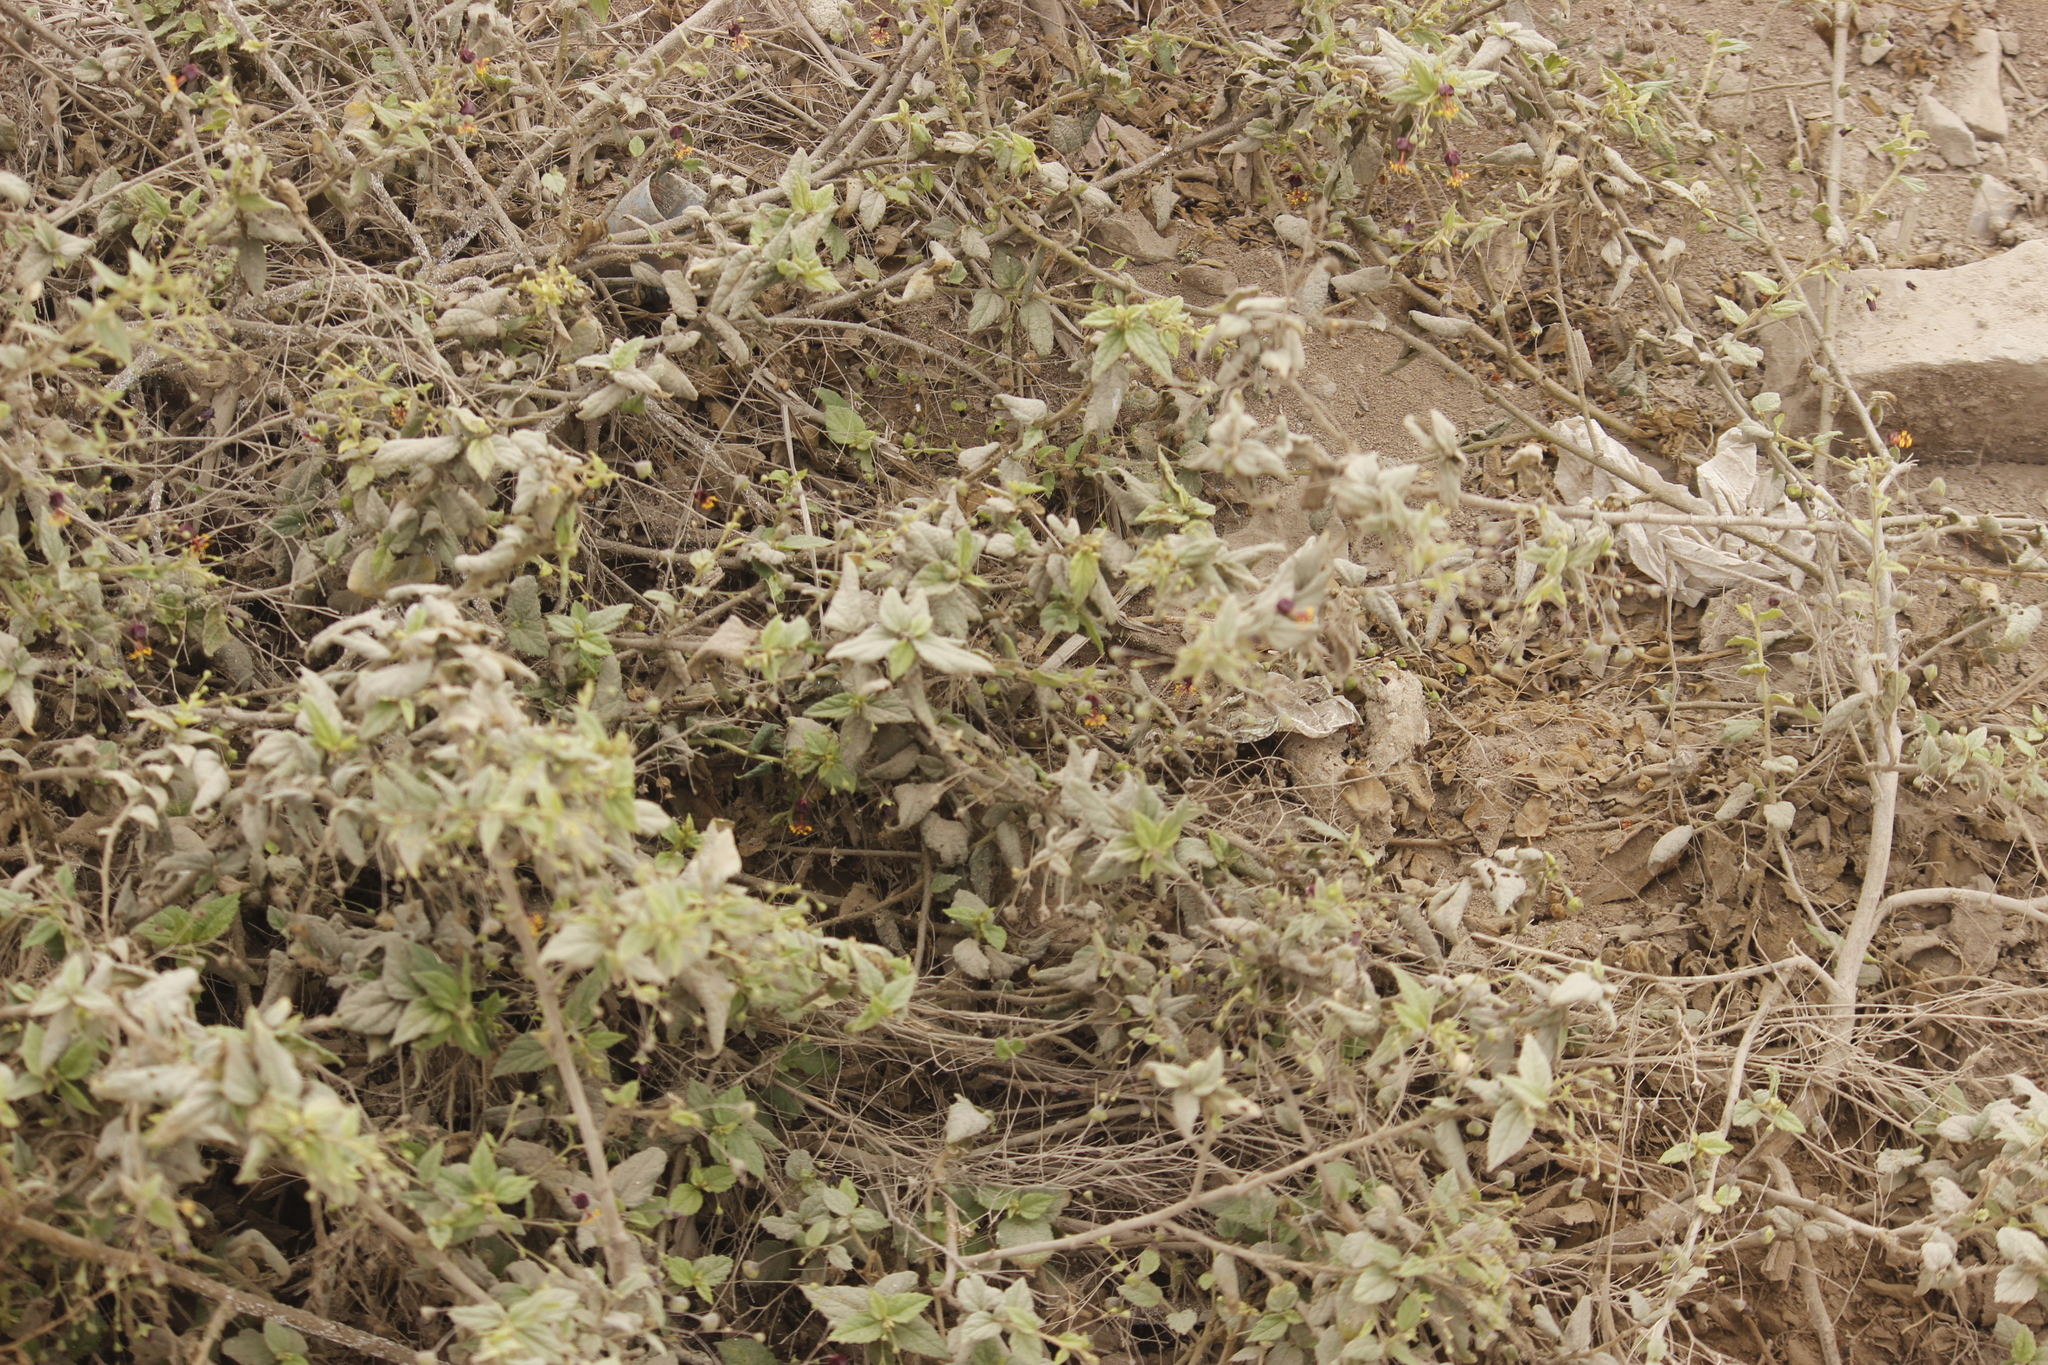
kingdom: Plantae
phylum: Tracheophyta
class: Magnoliopsida
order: Malvales
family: Malvaceae
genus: Sidastrum
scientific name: Sidastrum paniculatum
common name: Panicled sandmallow
